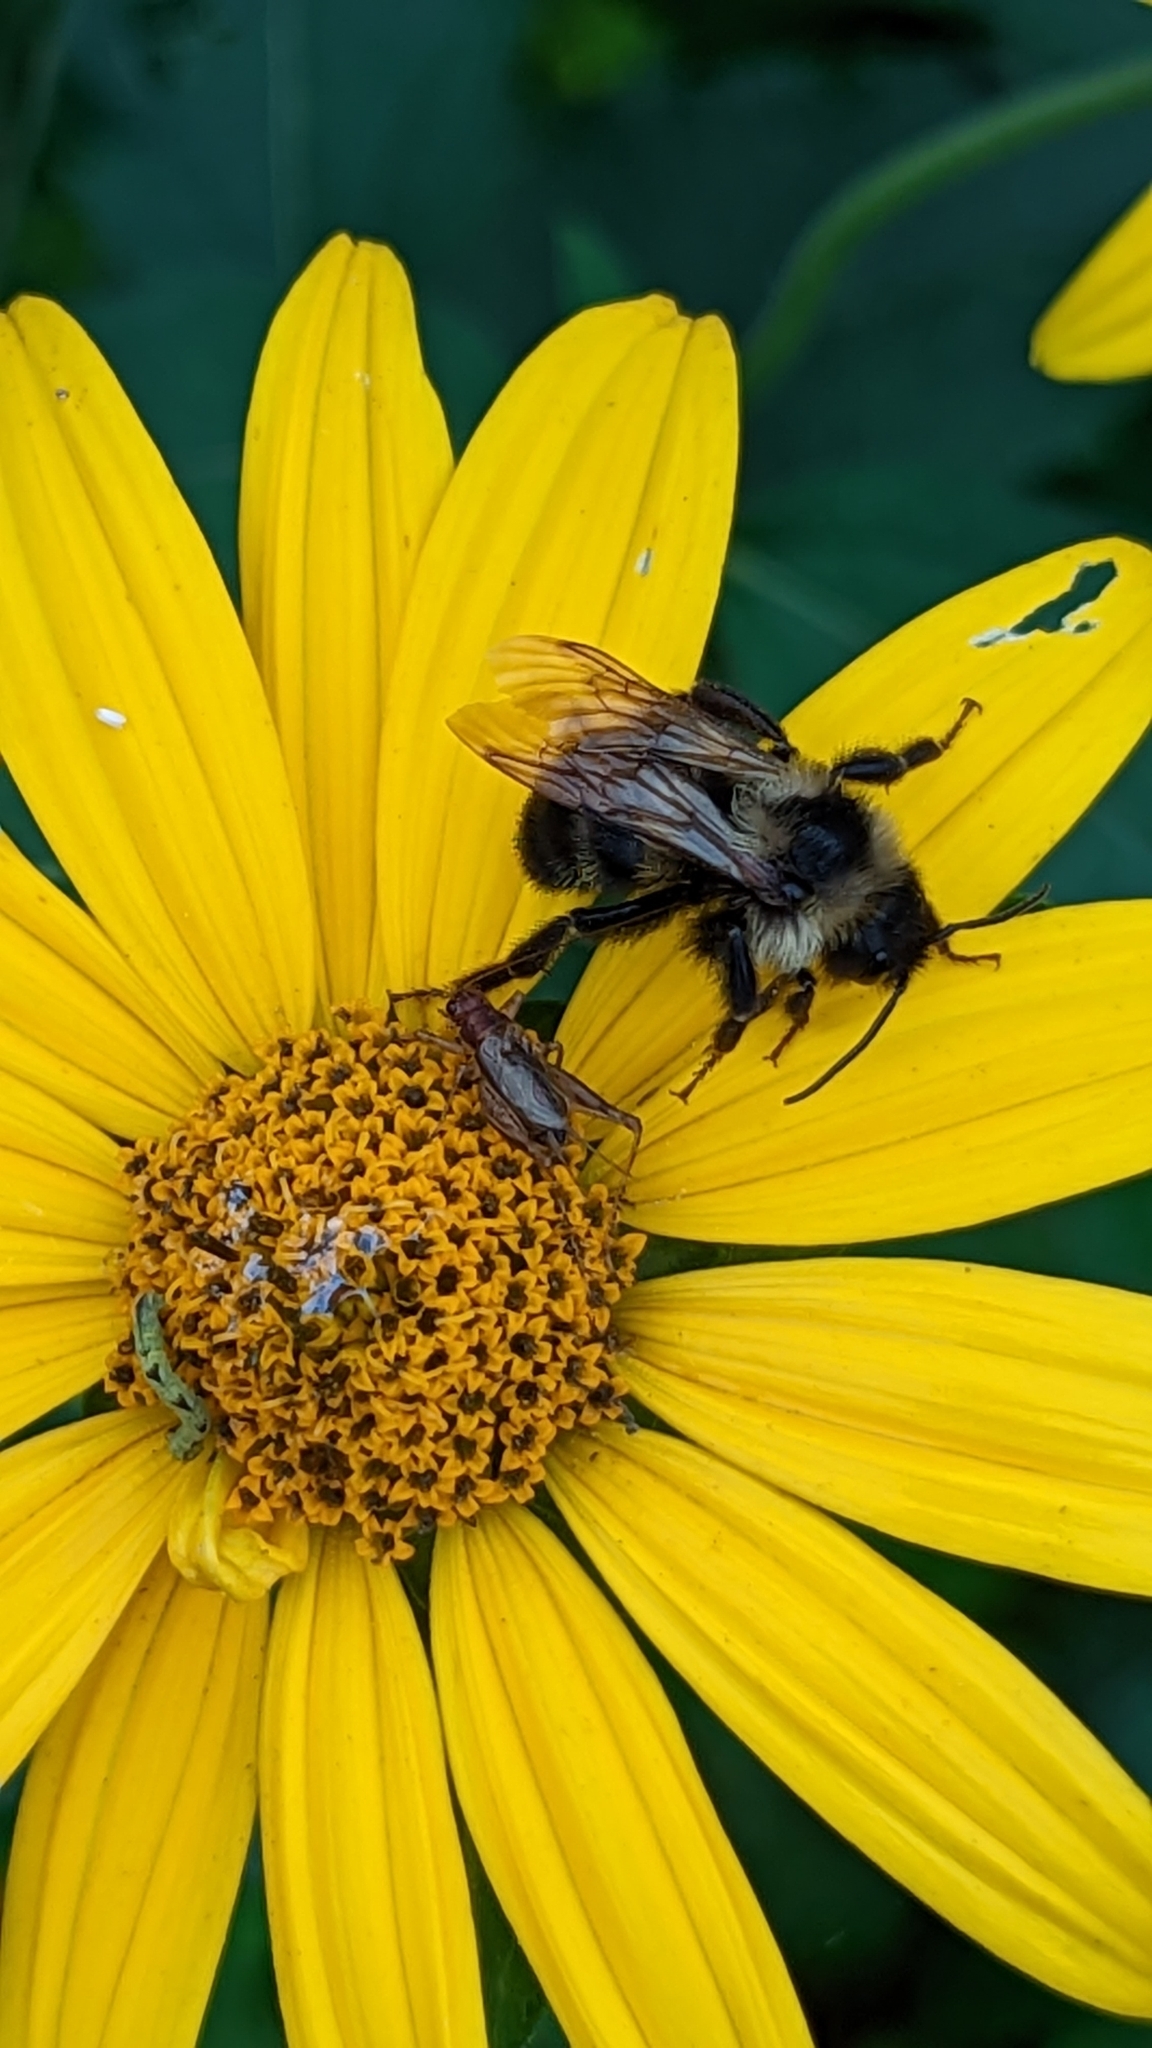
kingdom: Animalia
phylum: Arthropoda
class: Insecta
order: Hymenoptera
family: Apidae
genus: Bombus
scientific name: Bombus citrinus
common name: Lemon cuckoo bumble bee
